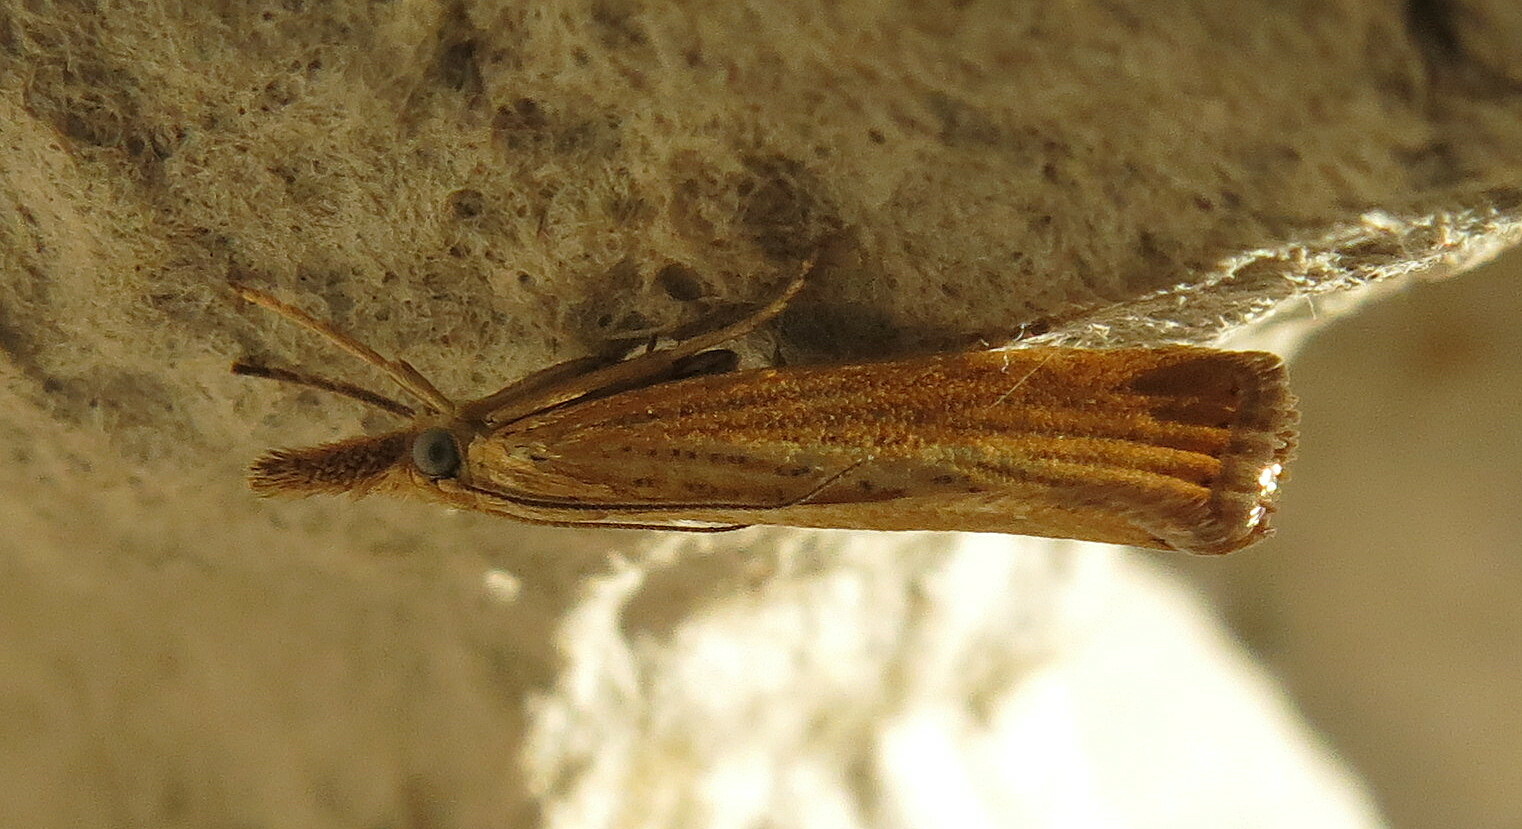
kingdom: Animalia
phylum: Arthropoda
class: Insecta
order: Lepidoptera
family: Crambidae
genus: Agriphila
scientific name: Agriphila straminella
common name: Straw grass-veneer
